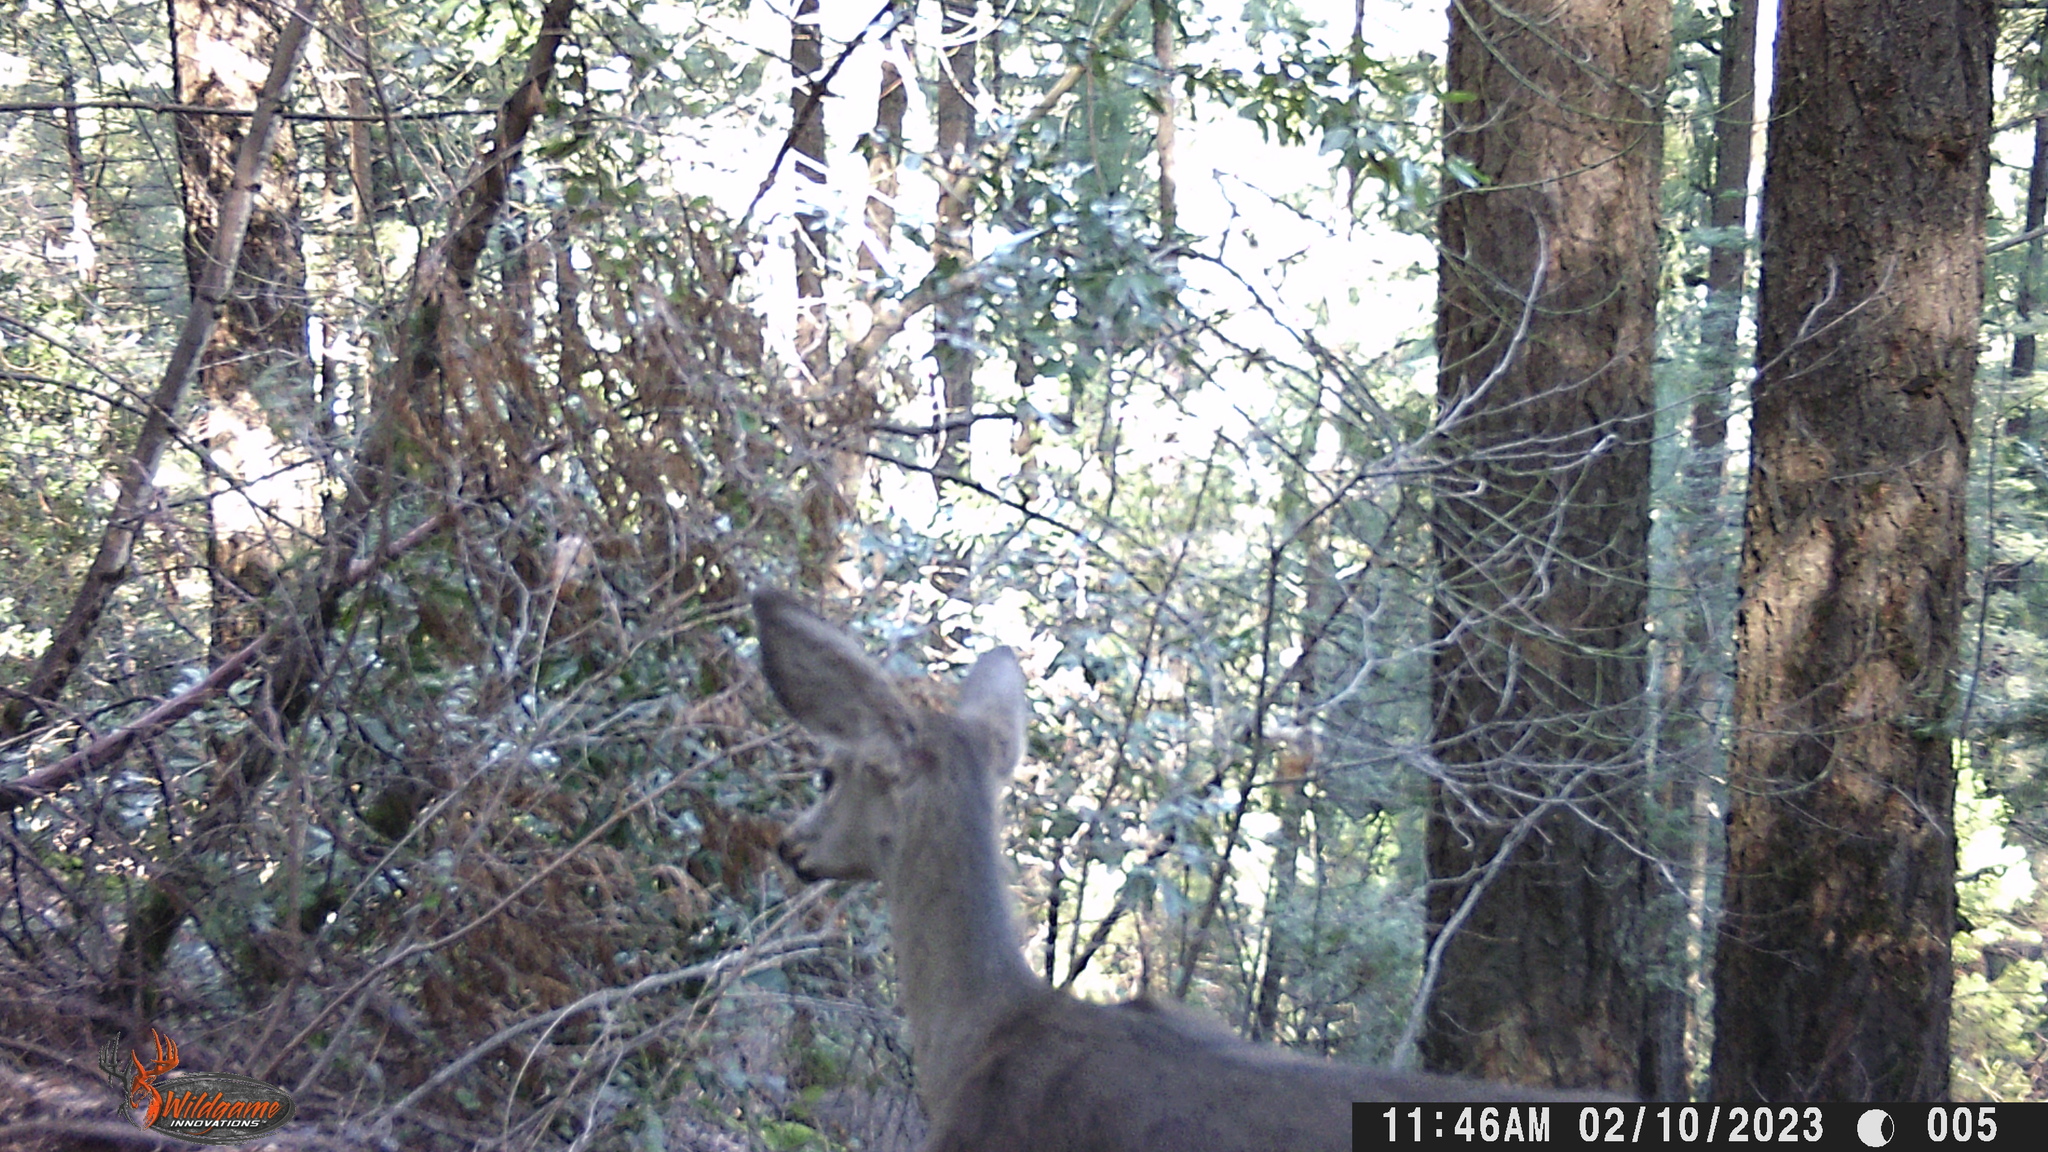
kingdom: Animalia
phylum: Chordata
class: Mammalia
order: Artiodactyla
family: Cervidae
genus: Odocoileus
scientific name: Odocoileus hemionus
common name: Mule deer
